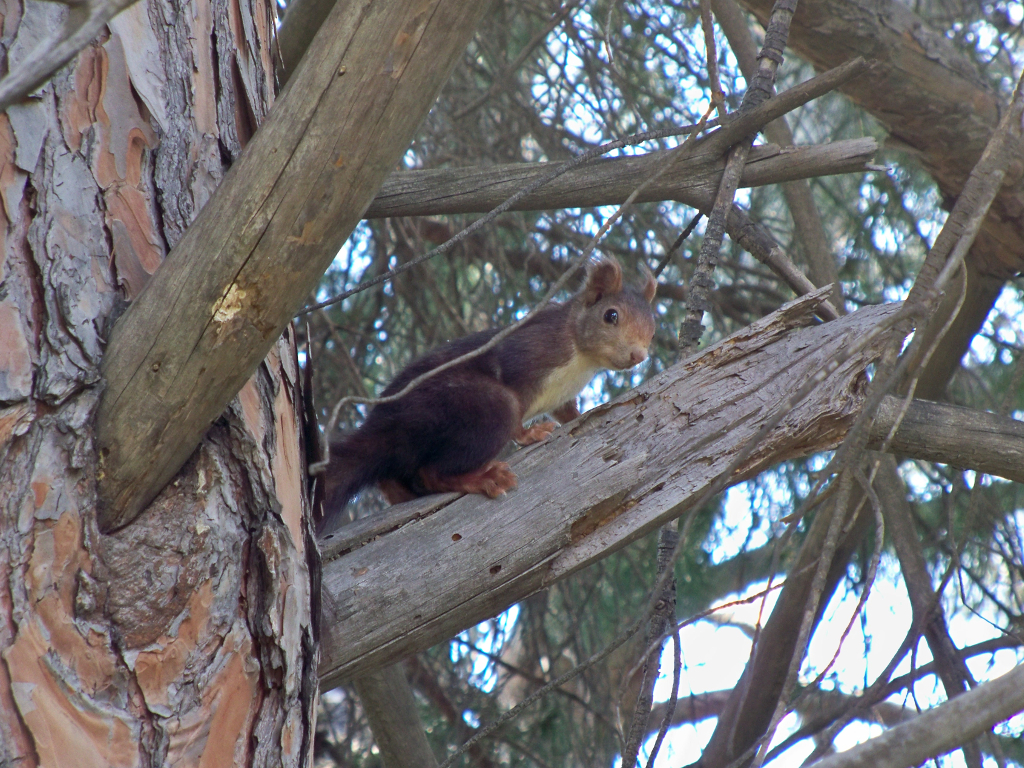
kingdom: Animalia
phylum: Chordata
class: Mammalia
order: Rodentia
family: Sciuridae
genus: Sciurus
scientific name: Sciurus vulgaris
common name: Eurasian red squirrel
